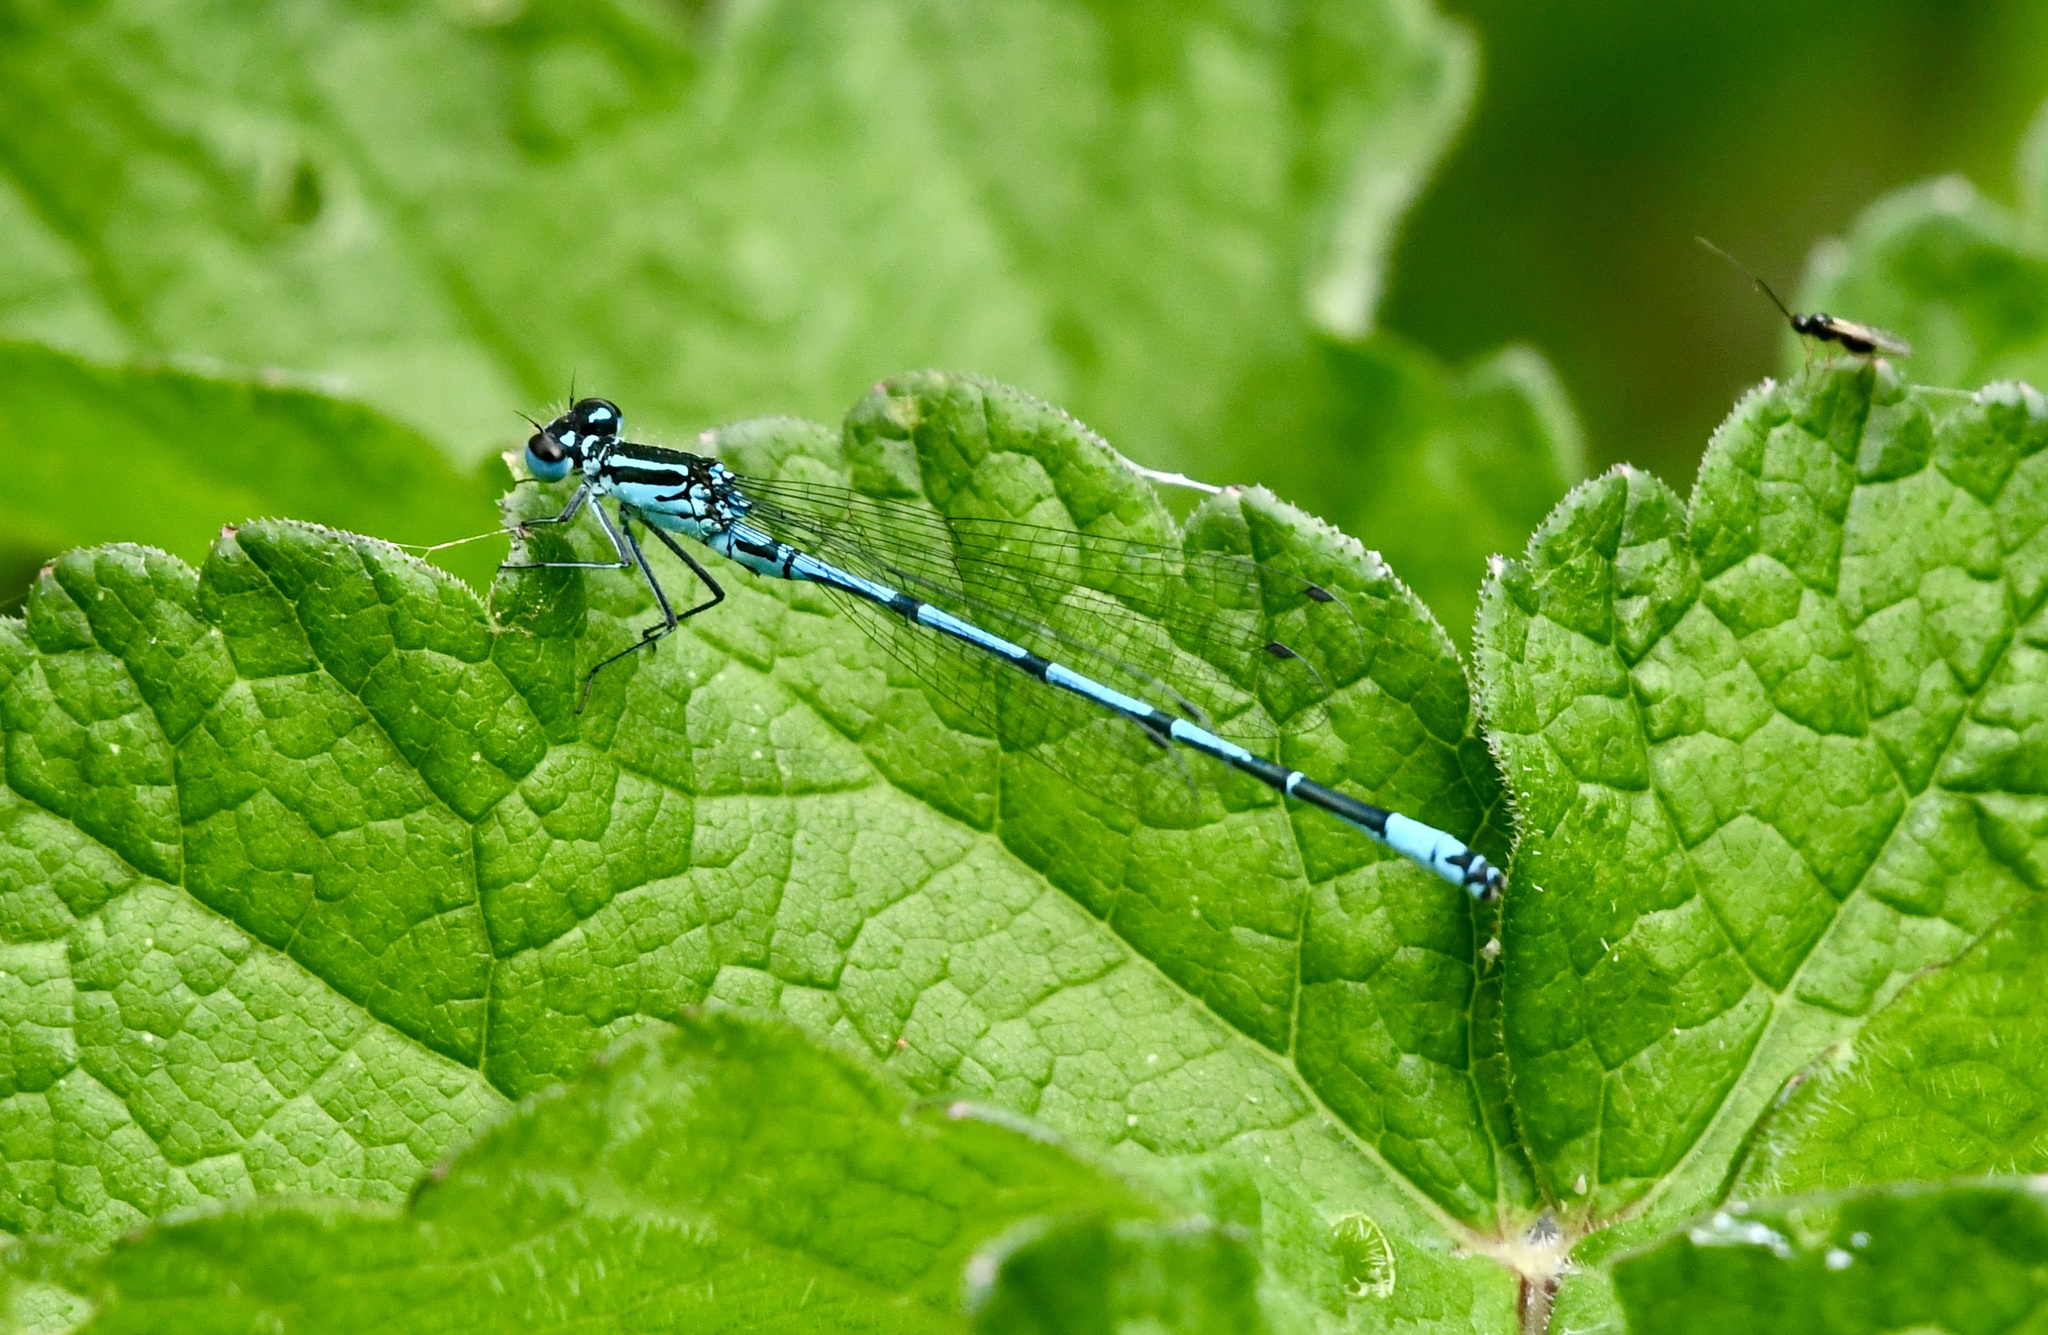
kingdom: Animalia
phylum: Arthropoda
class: Insecta
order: Odonata
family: Coenagrionidae
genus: Coenagrion
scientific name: Coenagrion puella
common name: Azure damselfly
